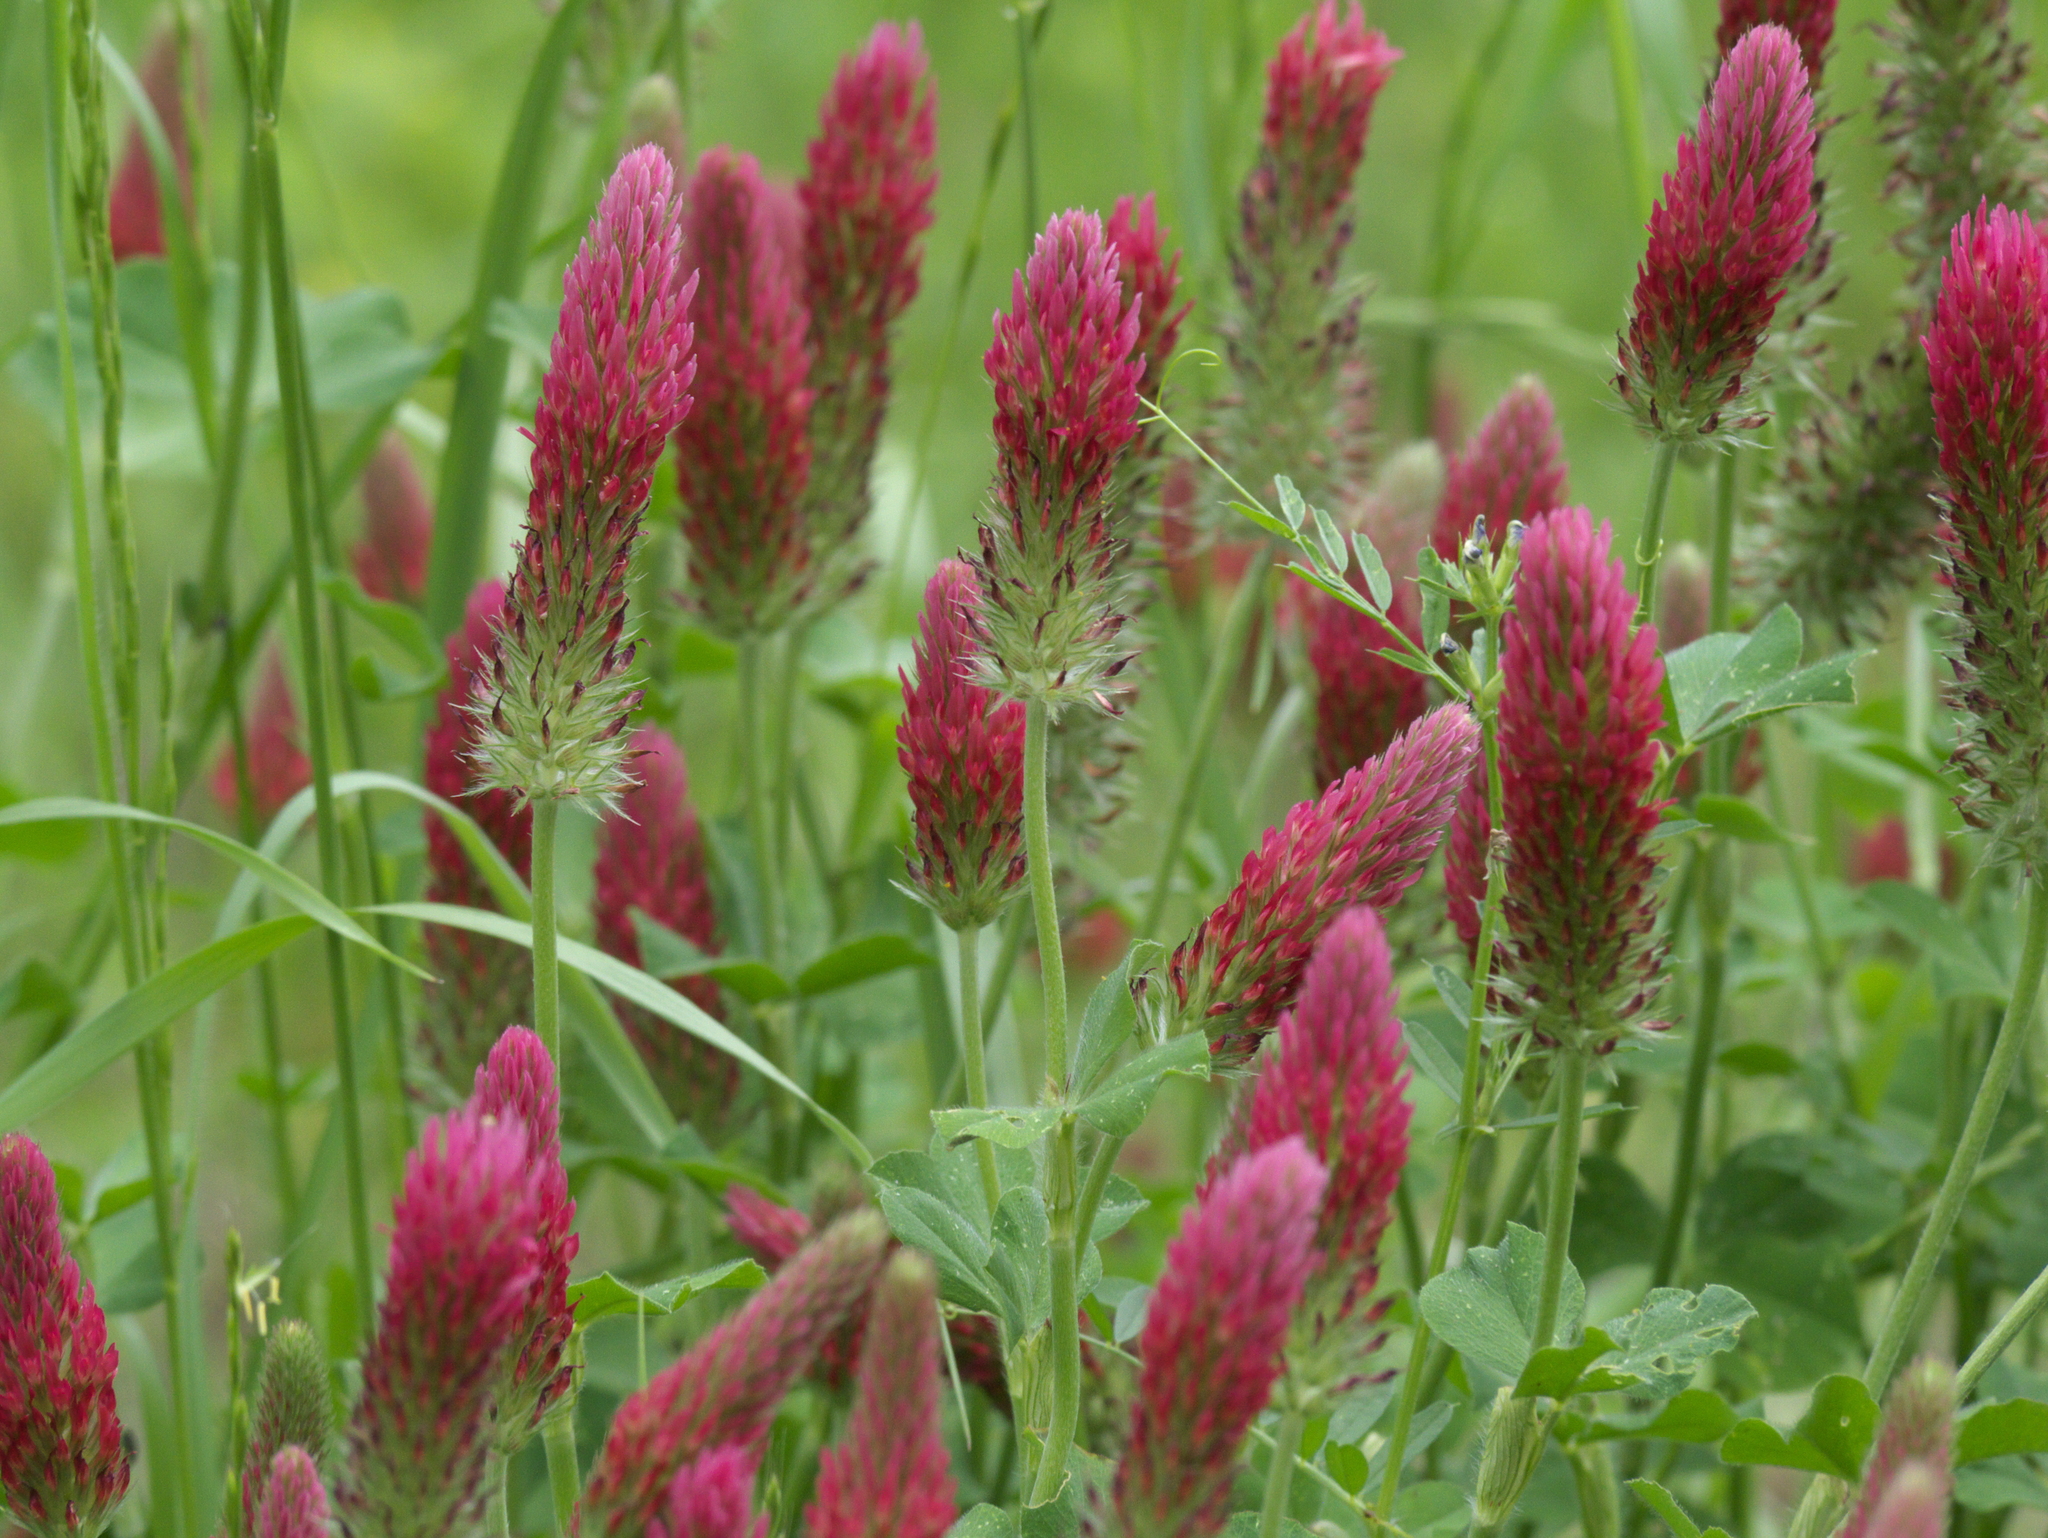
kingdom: Plantae
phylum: Tracheophyta
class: Magnoliopsida
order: Fabales
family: Fabaceae
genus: Trifolium
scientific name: Trifolium incarnatum
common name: Crimson clover
